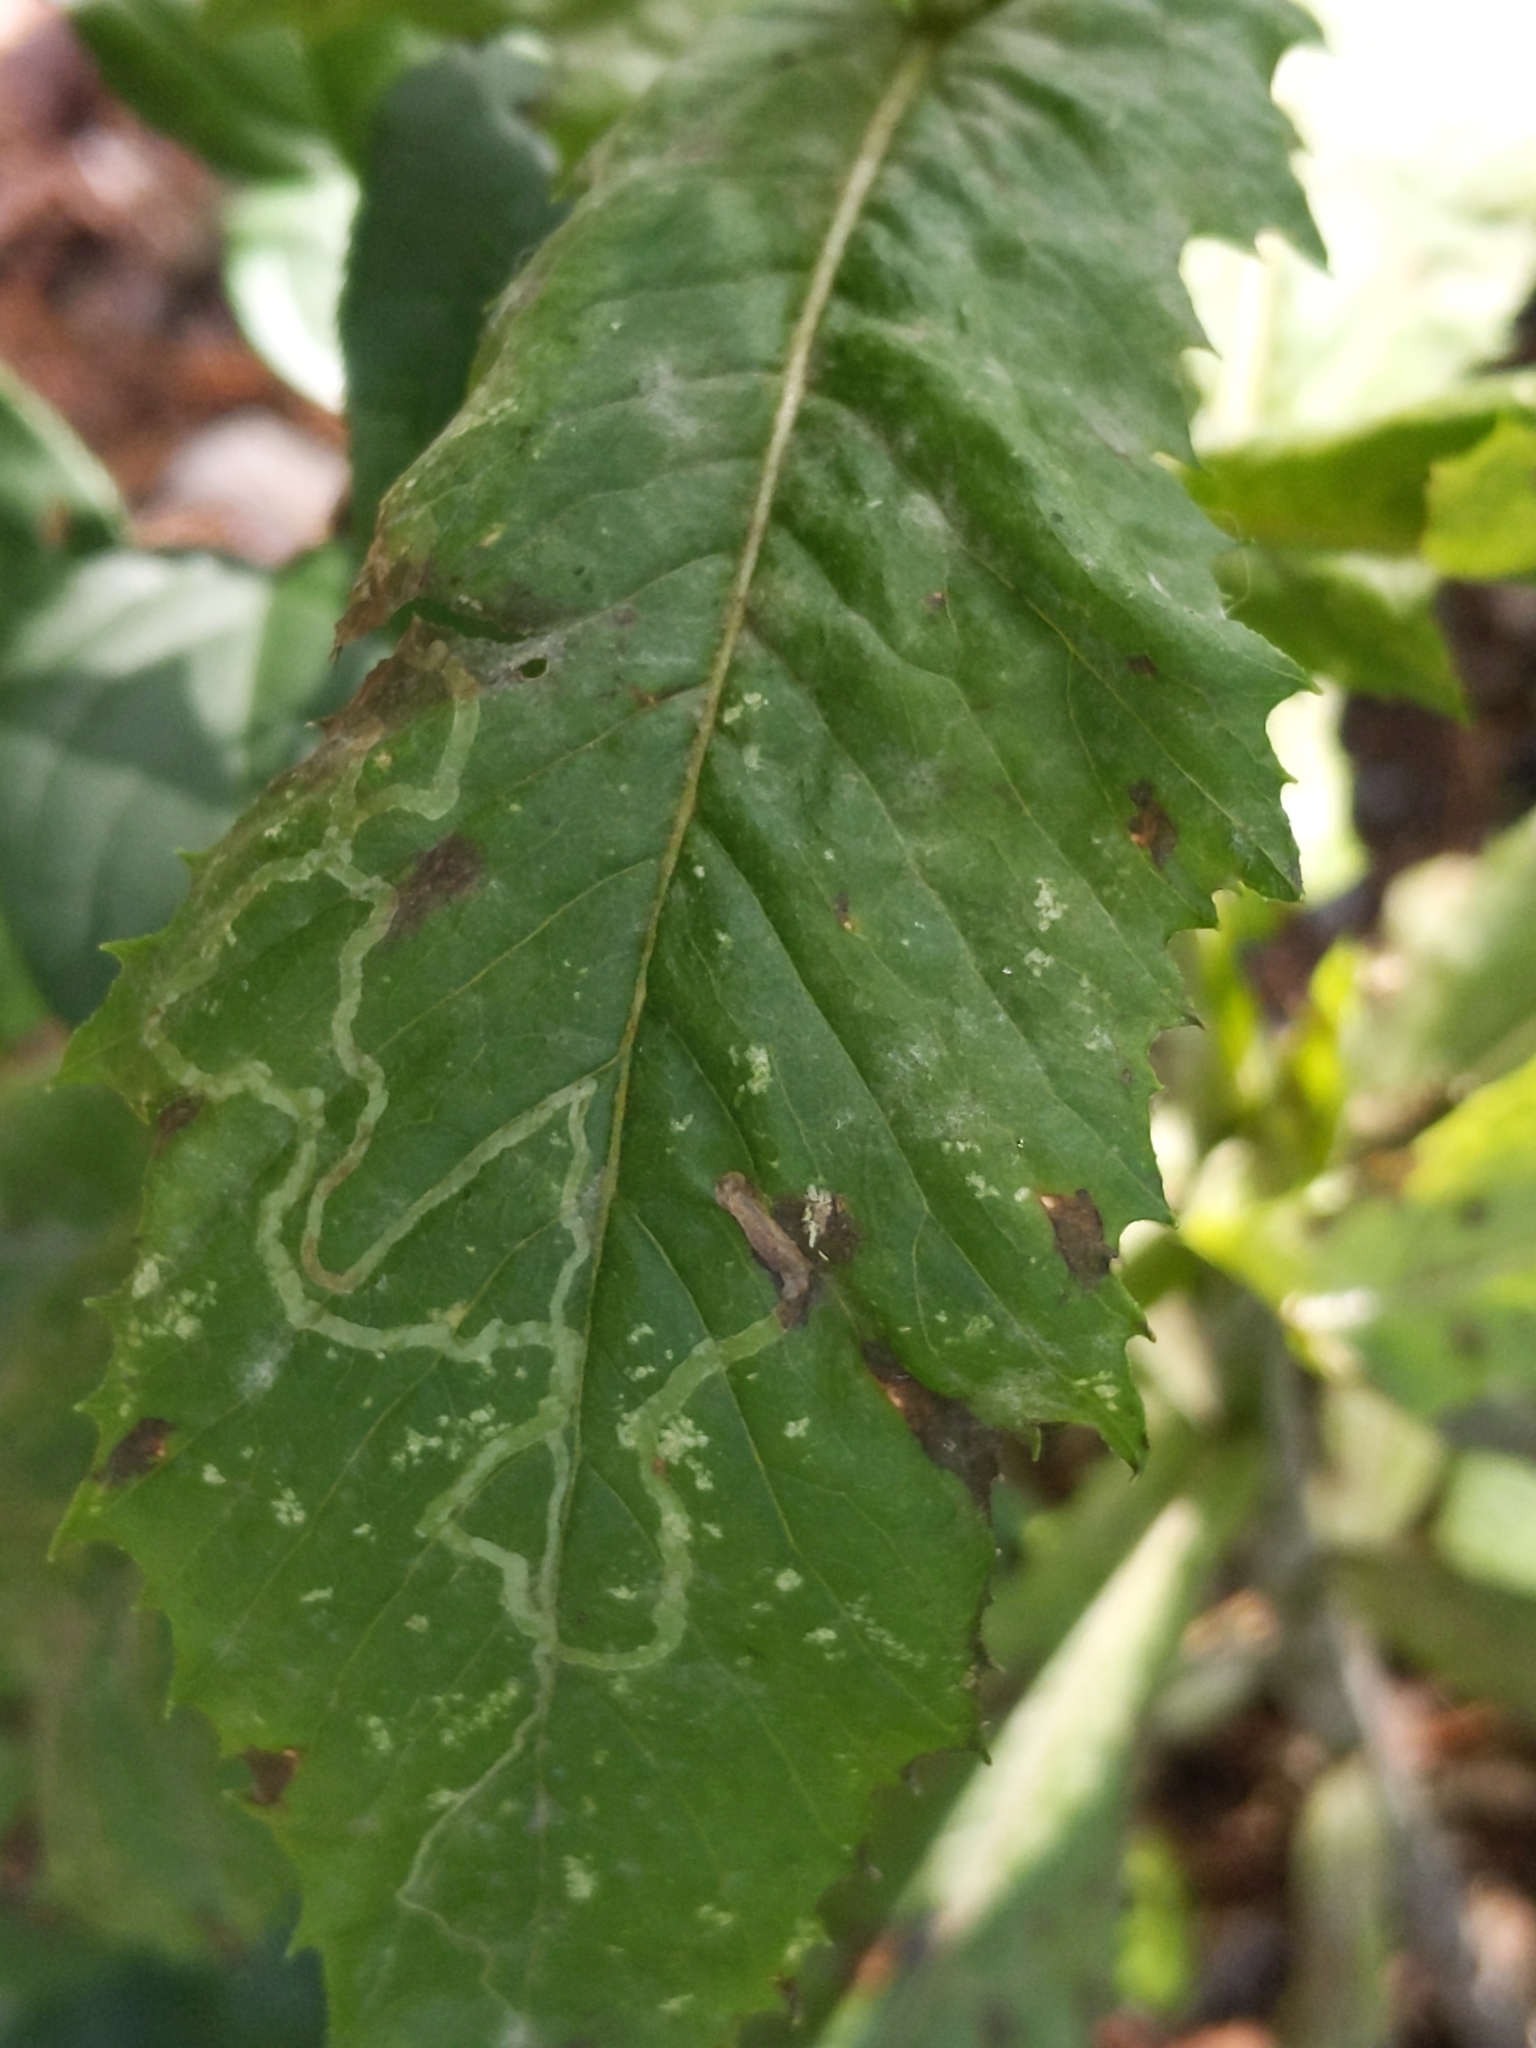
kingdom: Animalia
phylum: Arthropoda
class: Insecta
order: Lepidoptera
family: Gracillariidae
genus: Phyllocnistis
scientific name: Phyllocnistis insignis
